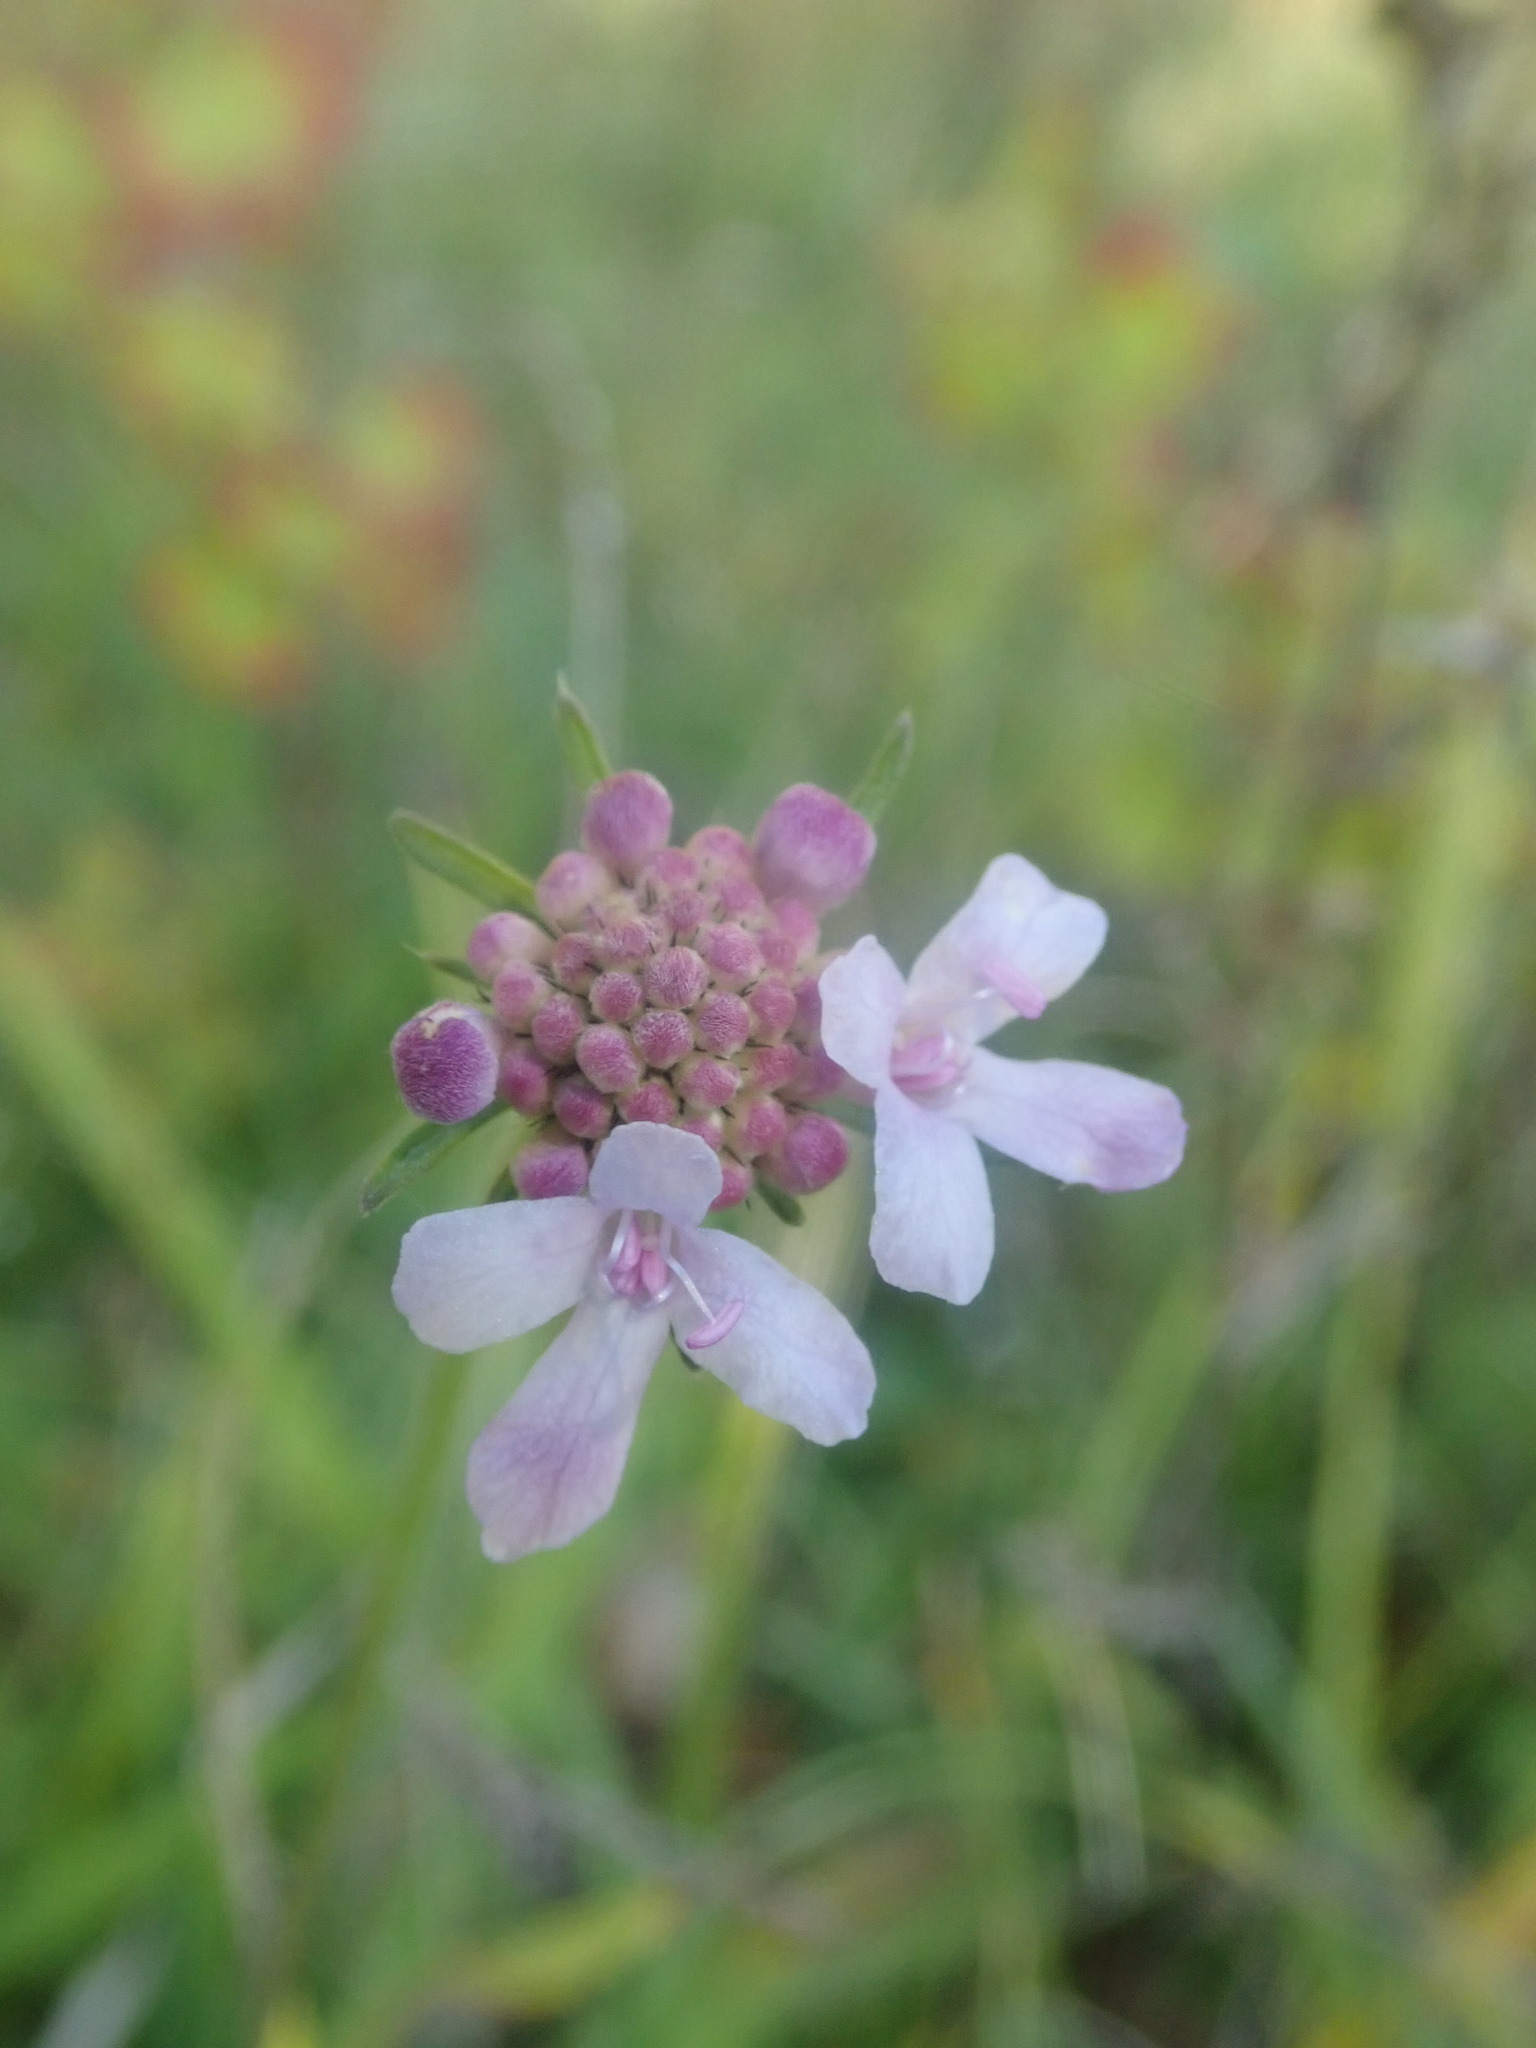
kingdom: Plantae
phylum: Tracheophyta
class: Magnoliopsida
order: Dipsacales
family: Caprifoliaceae
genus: Scabiosa
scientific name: Scabiosa columbaria
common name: Small scabious
